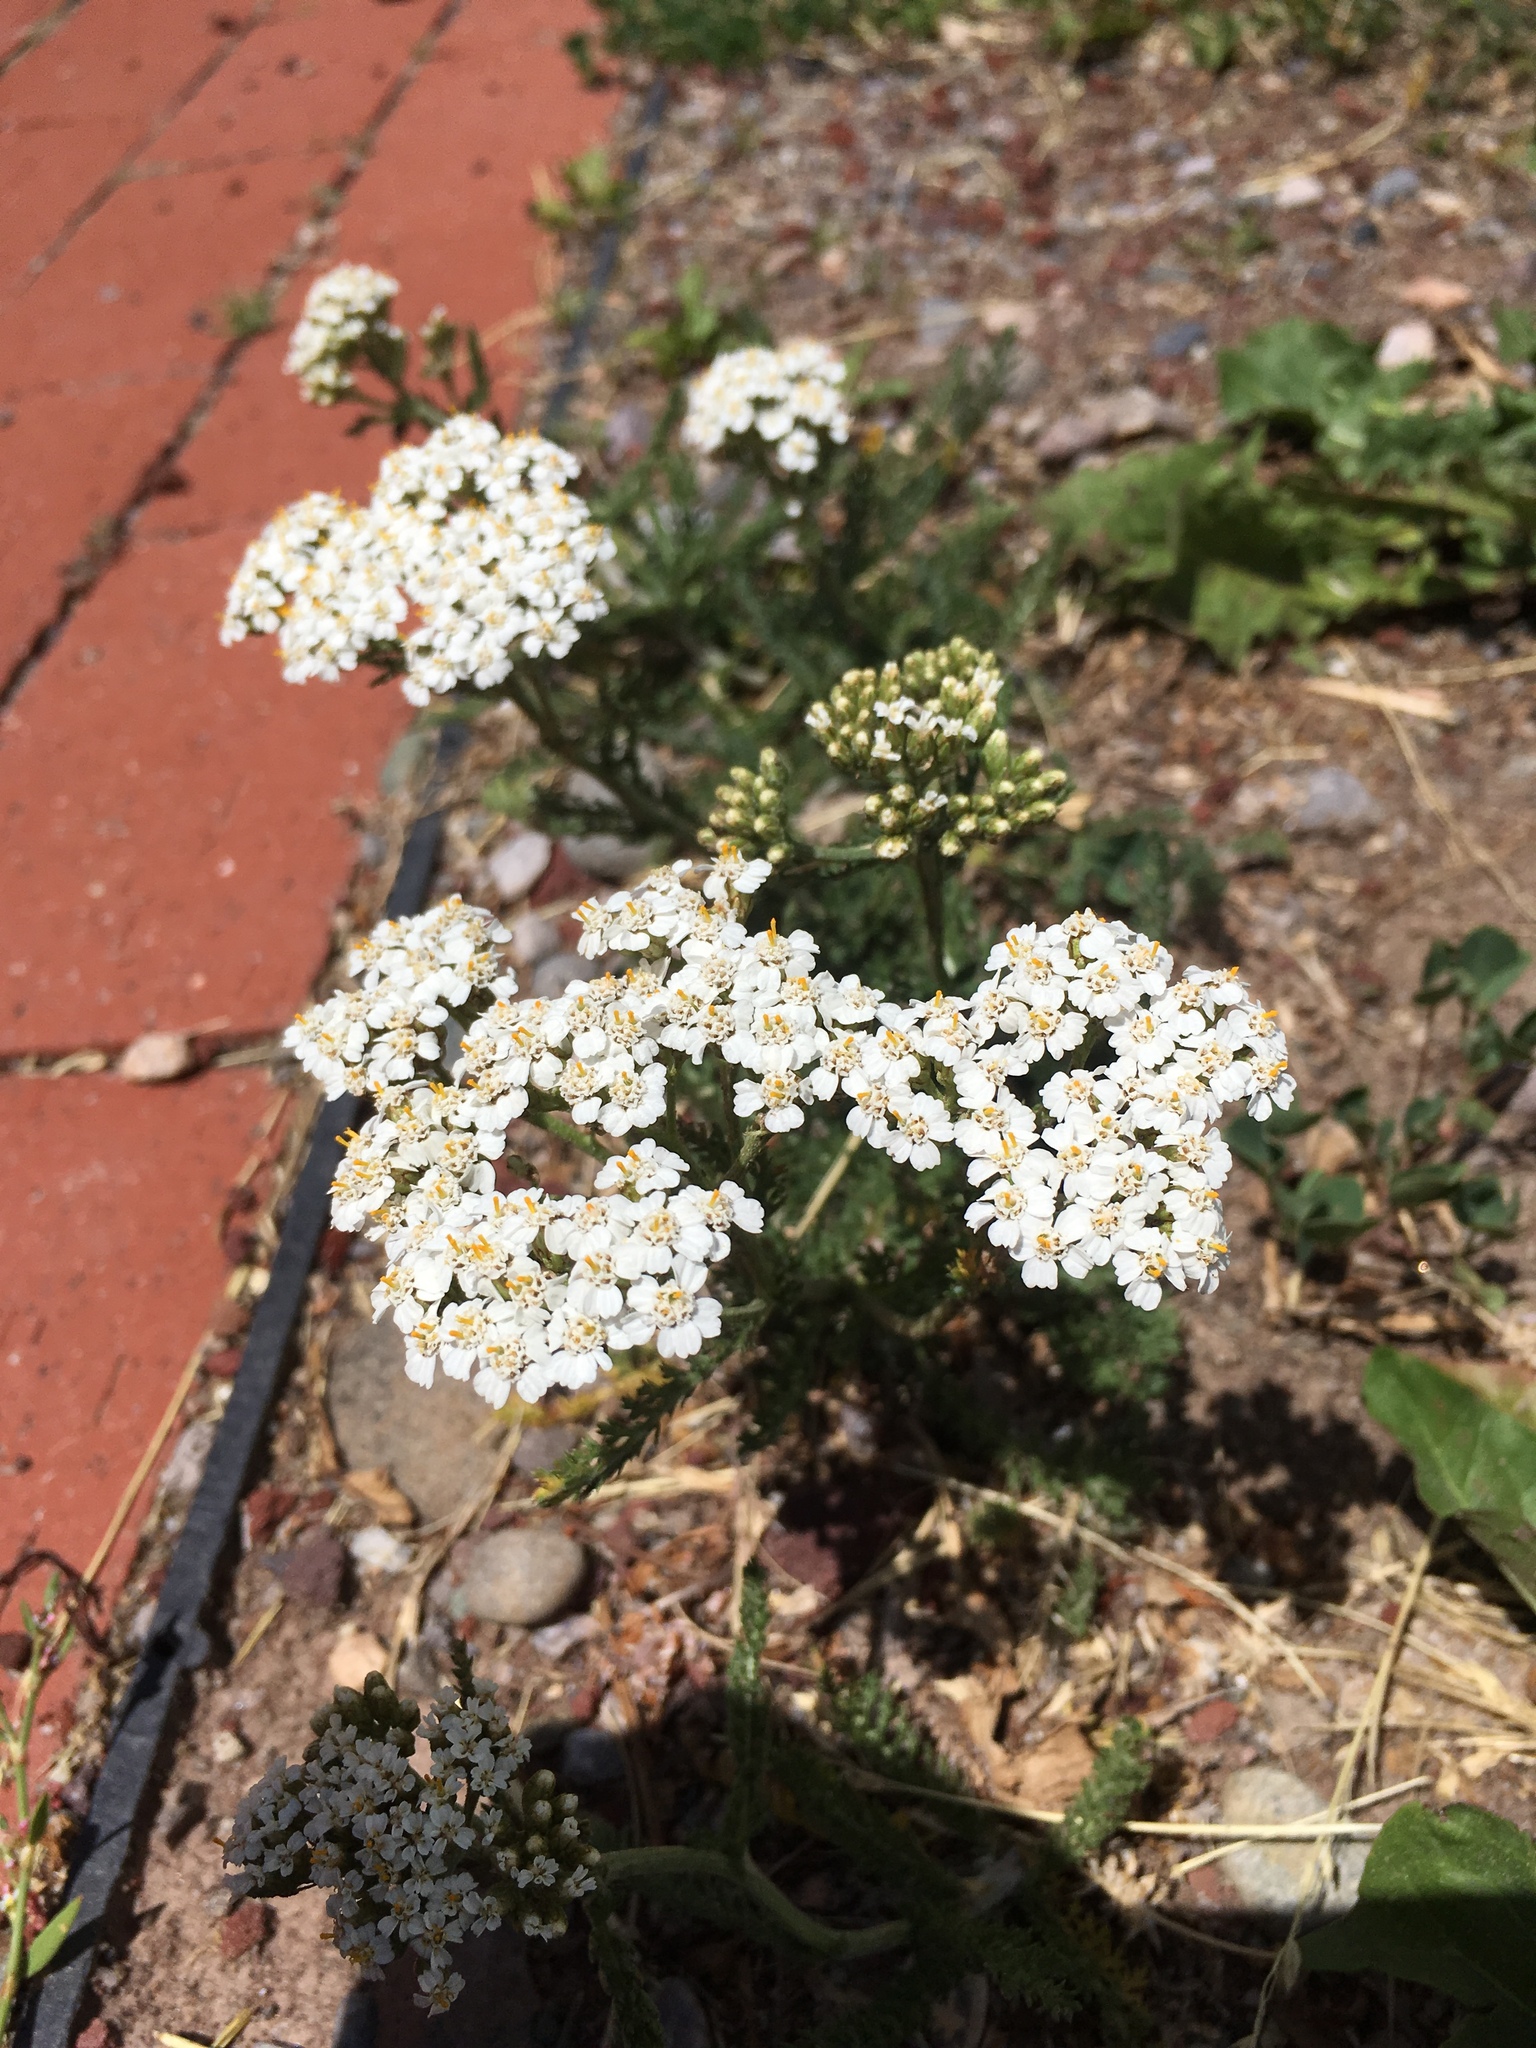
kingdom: Plantae
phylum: Tracheophyta
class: Magnoliopsida
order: Asterales
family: Asteraceae
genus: Achillea
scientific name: Achillea millefolium
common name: Yarrow
